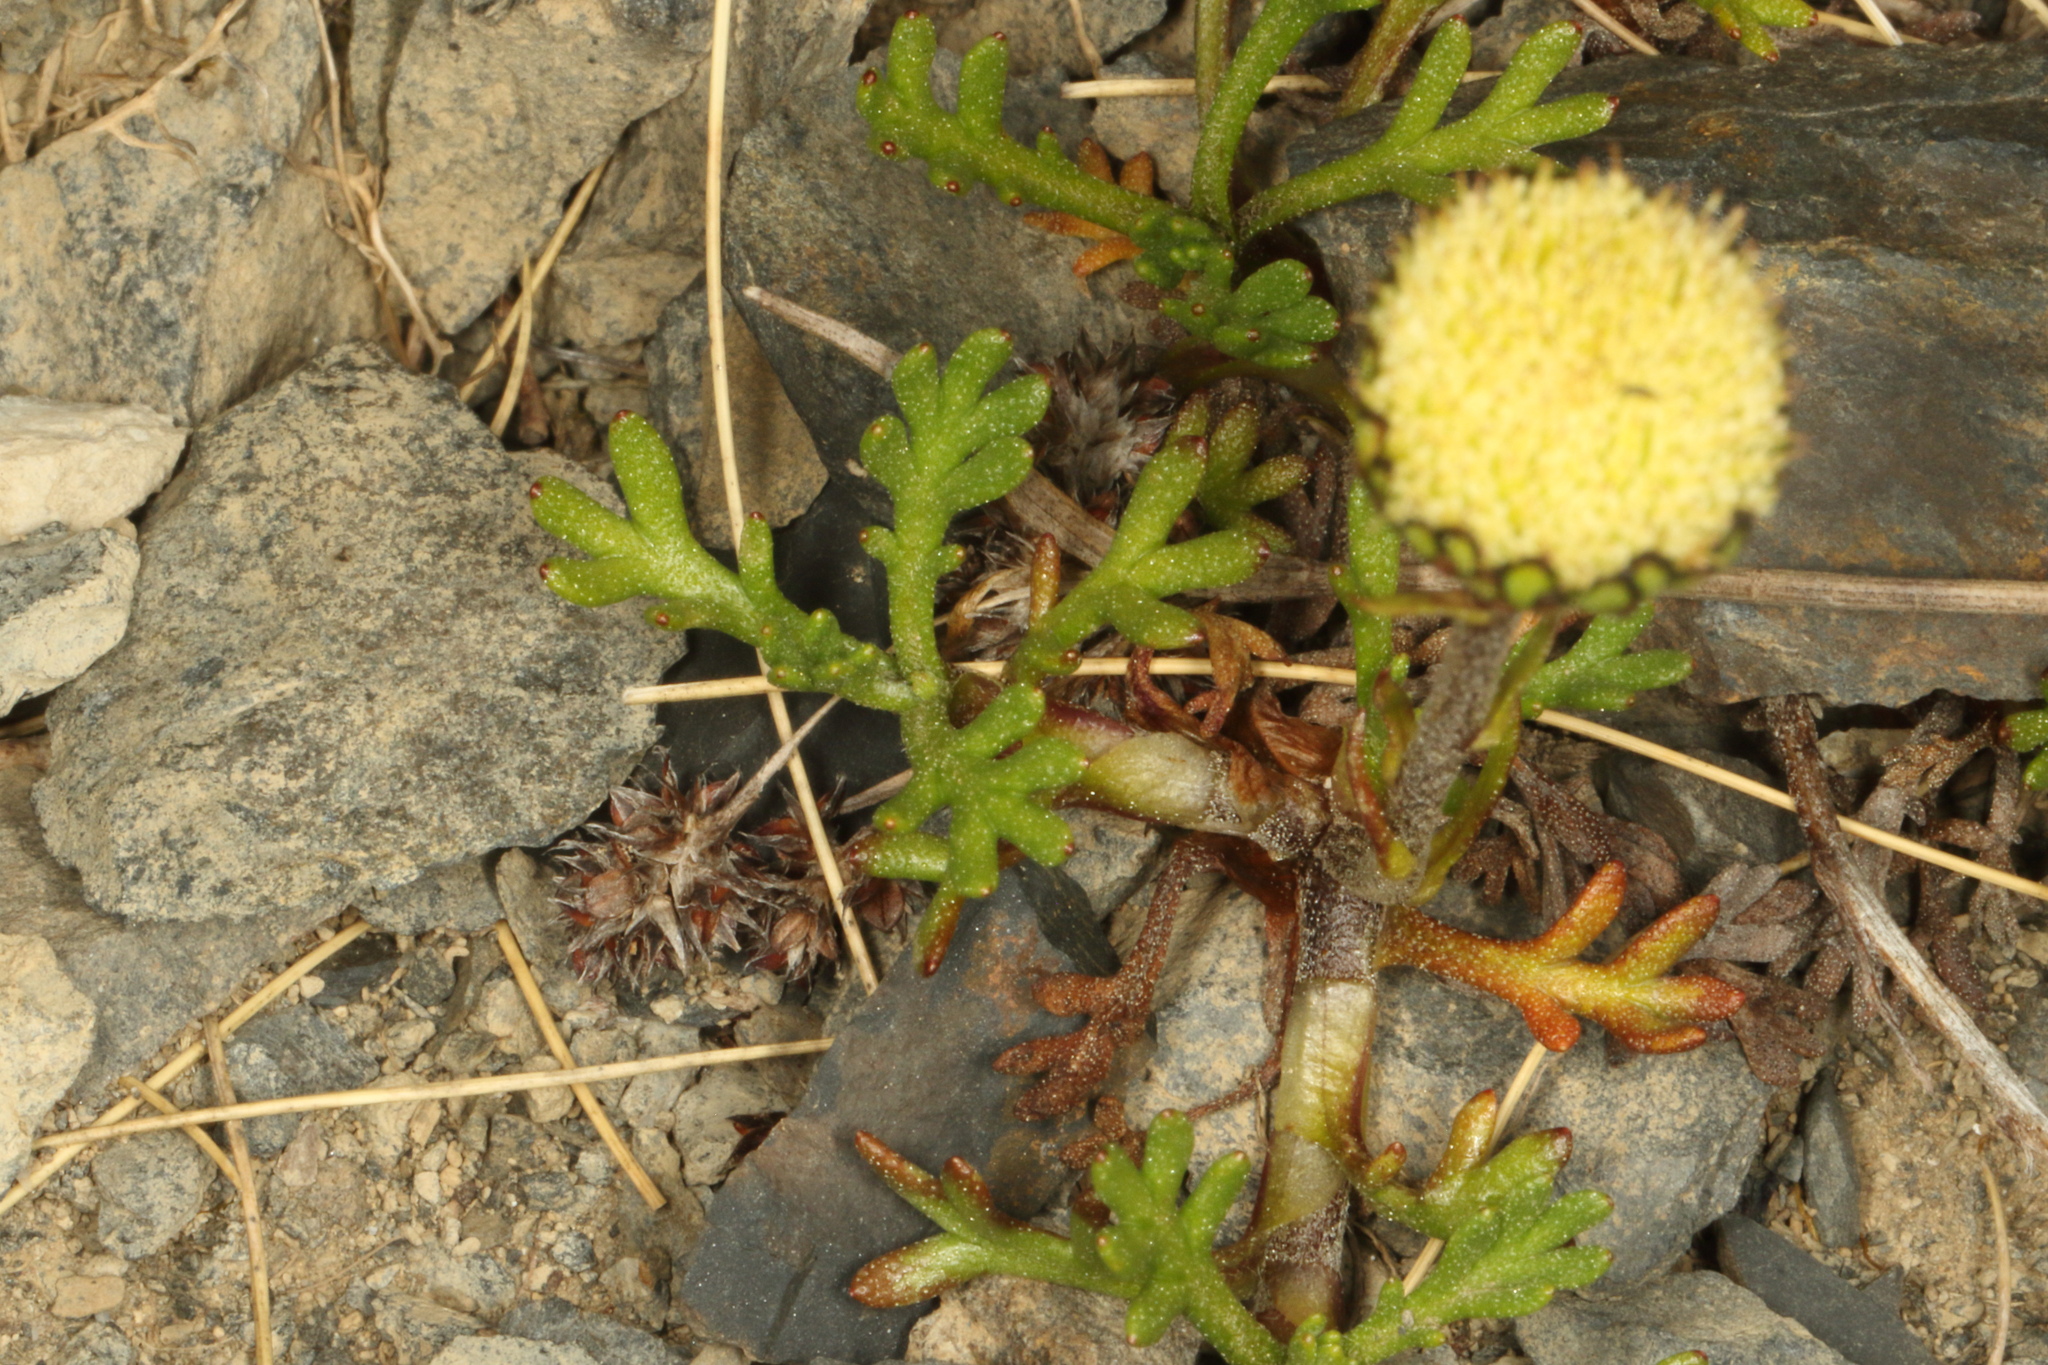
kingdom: Plantae
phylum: Tracheophyta
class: Magnoliopsida
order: Asterales
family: Asteraceae
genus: Leptinella
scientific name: Leptinella pyrethrifolia
